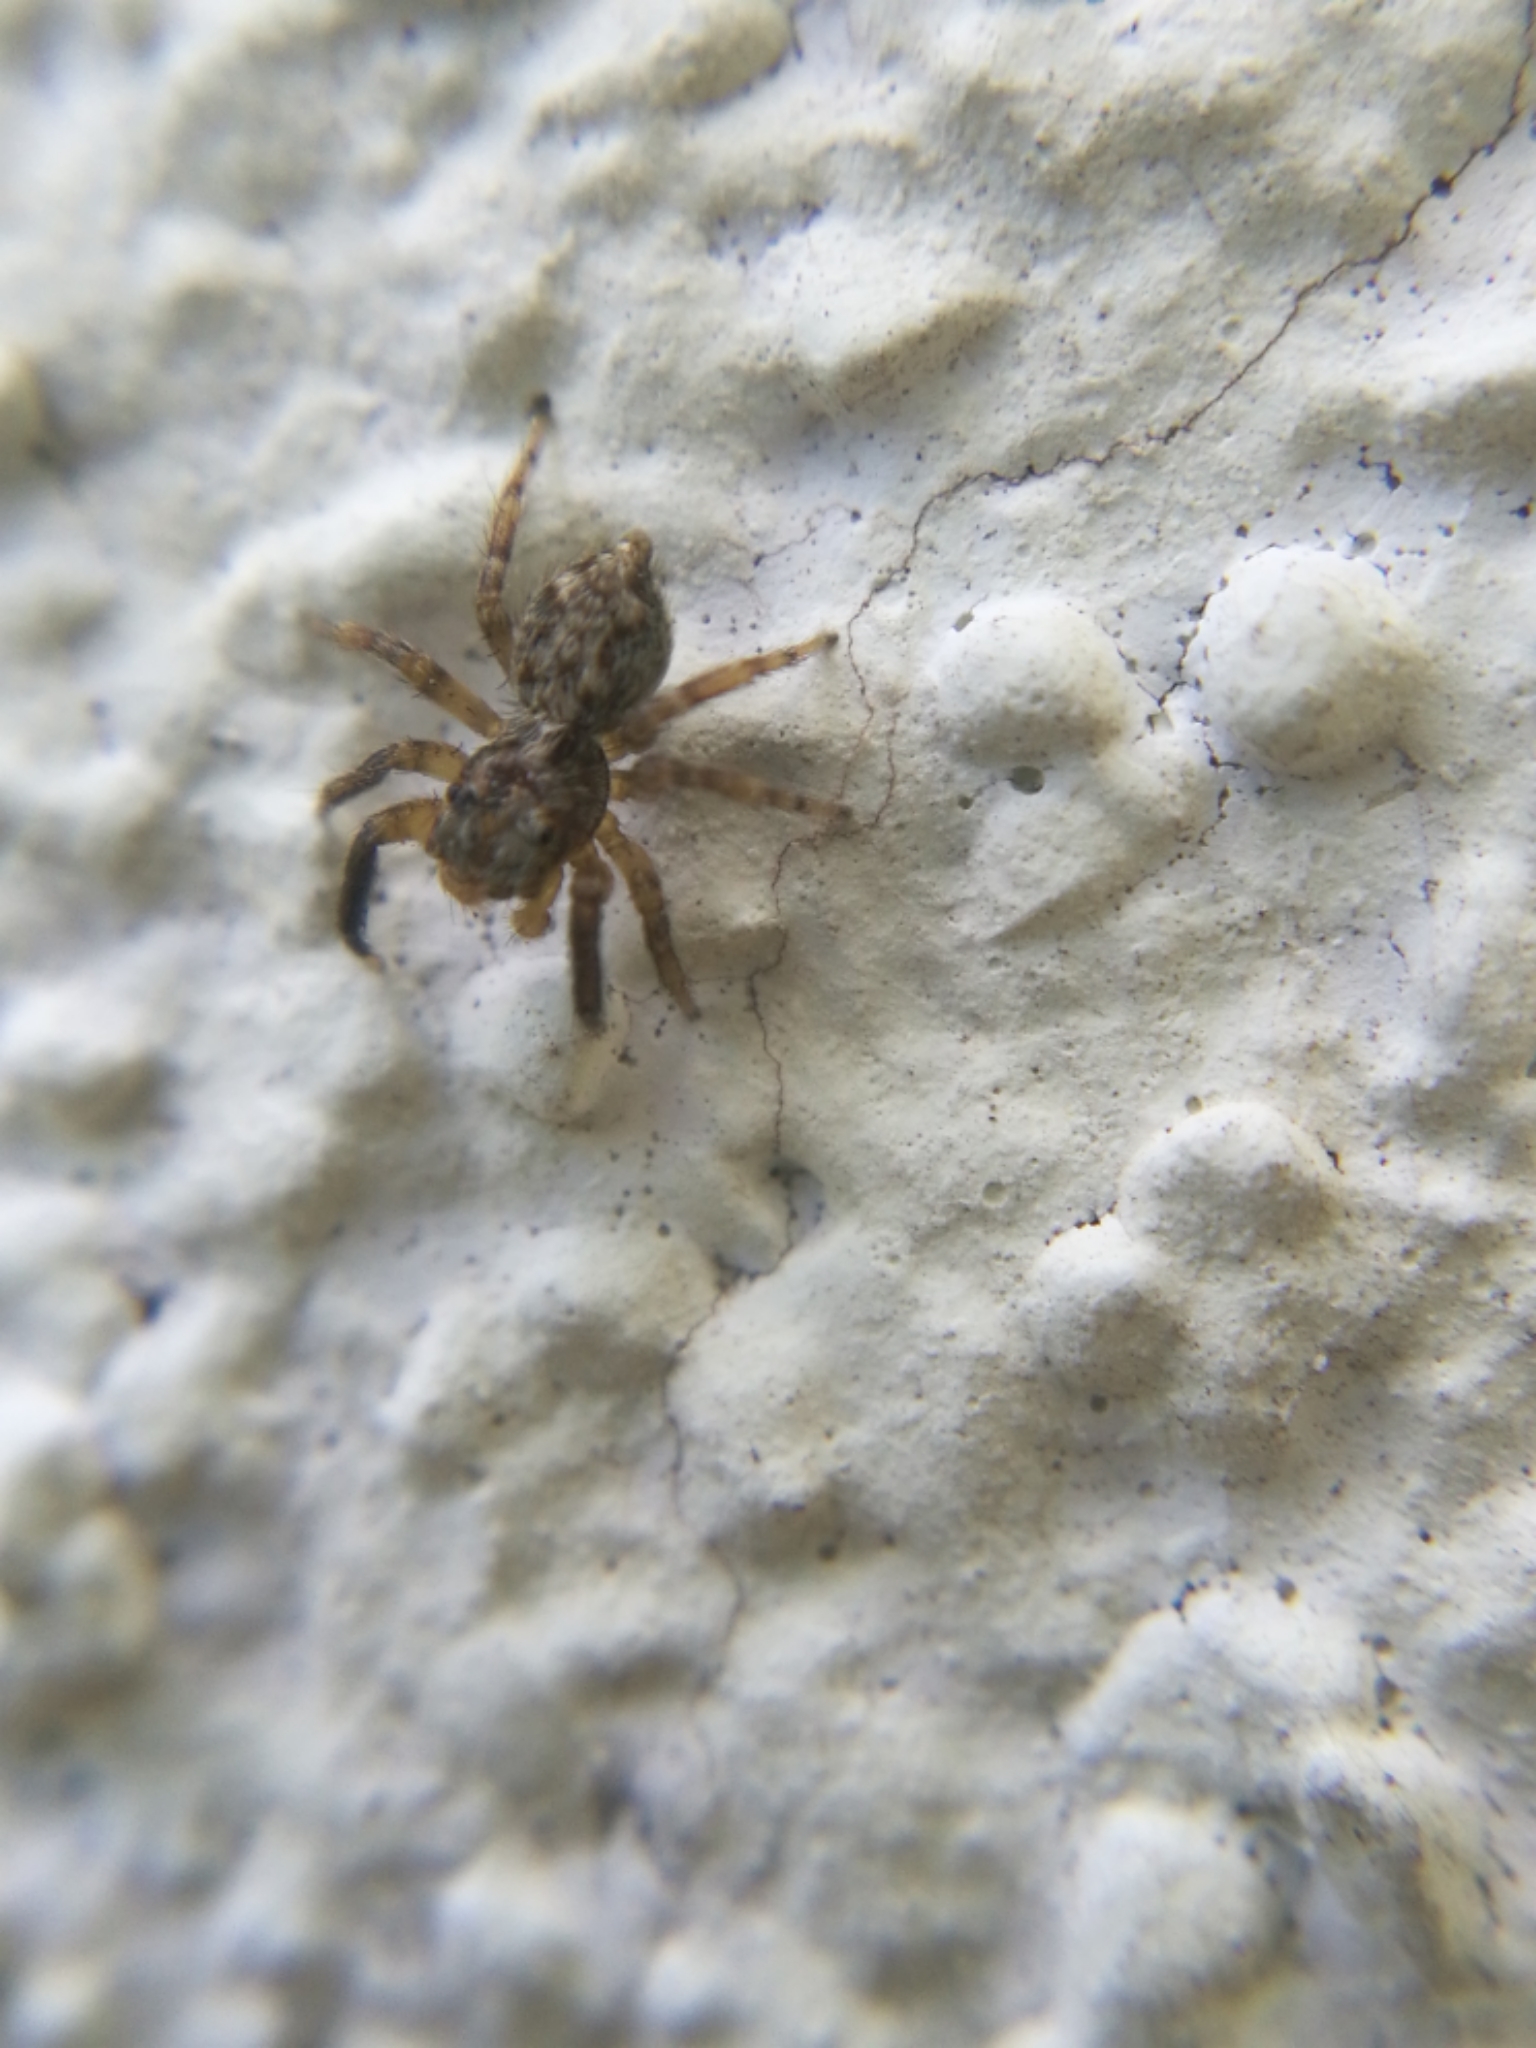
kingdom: Animalia
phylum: Arthropoda
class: Arachnida
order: Araneae
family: Salticidae
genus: Pseudeuophrys
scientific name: Pseudeuophrys vafra
